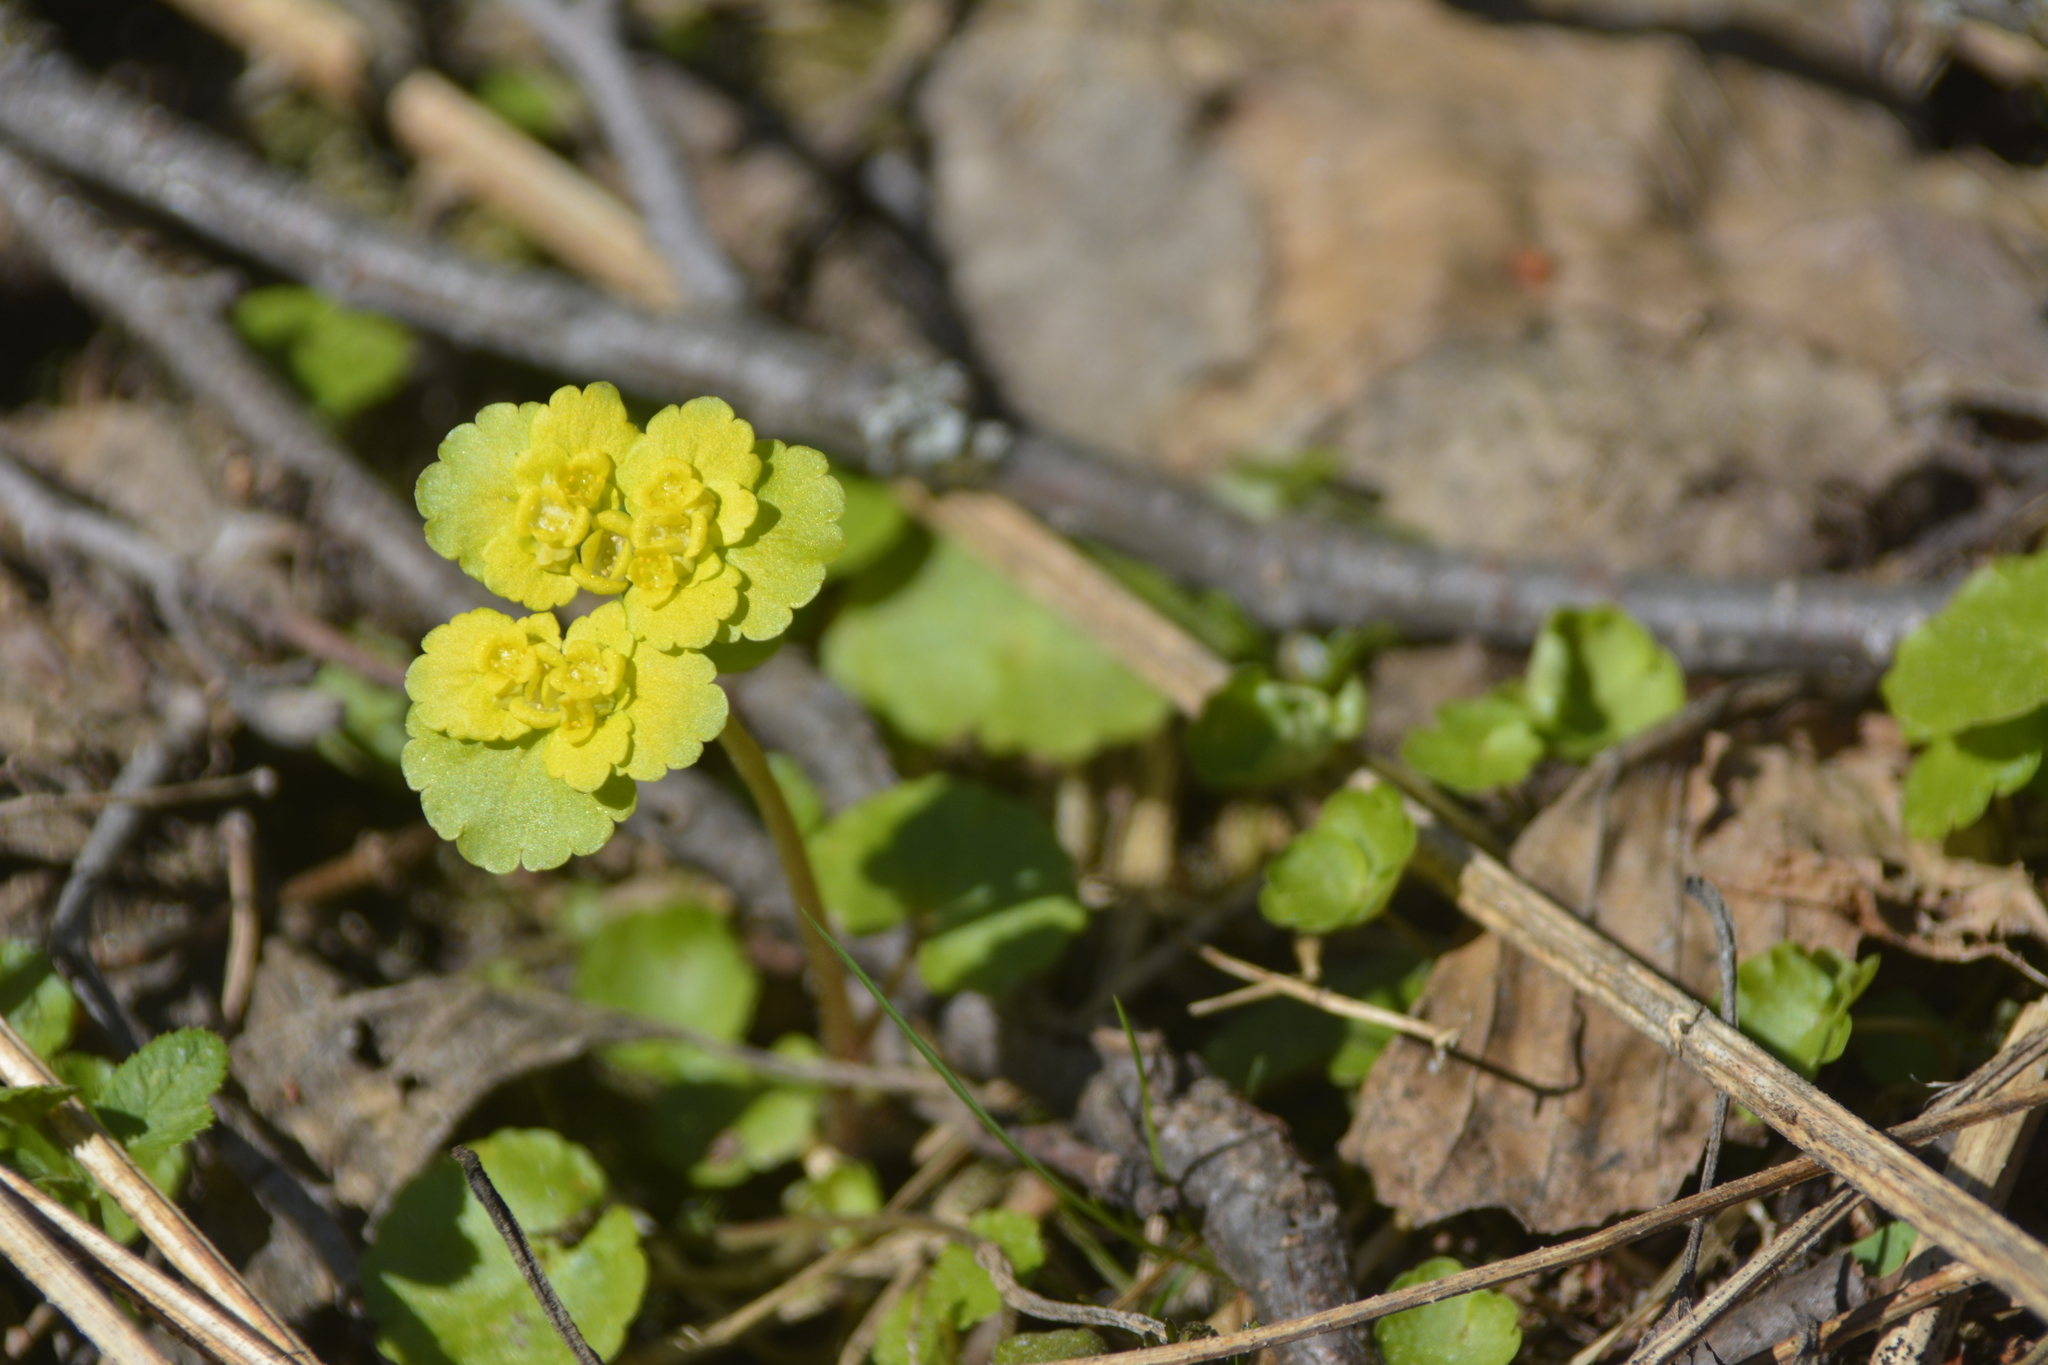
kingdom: Plantae
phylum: Tracheophyta
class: Magnoliopsida
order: Saxifragales
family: Saxifragaceae
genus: Chrysosplenium
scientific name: Chrysosplenium alternifolium
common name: Alternate-leaved golden-saxifrage
